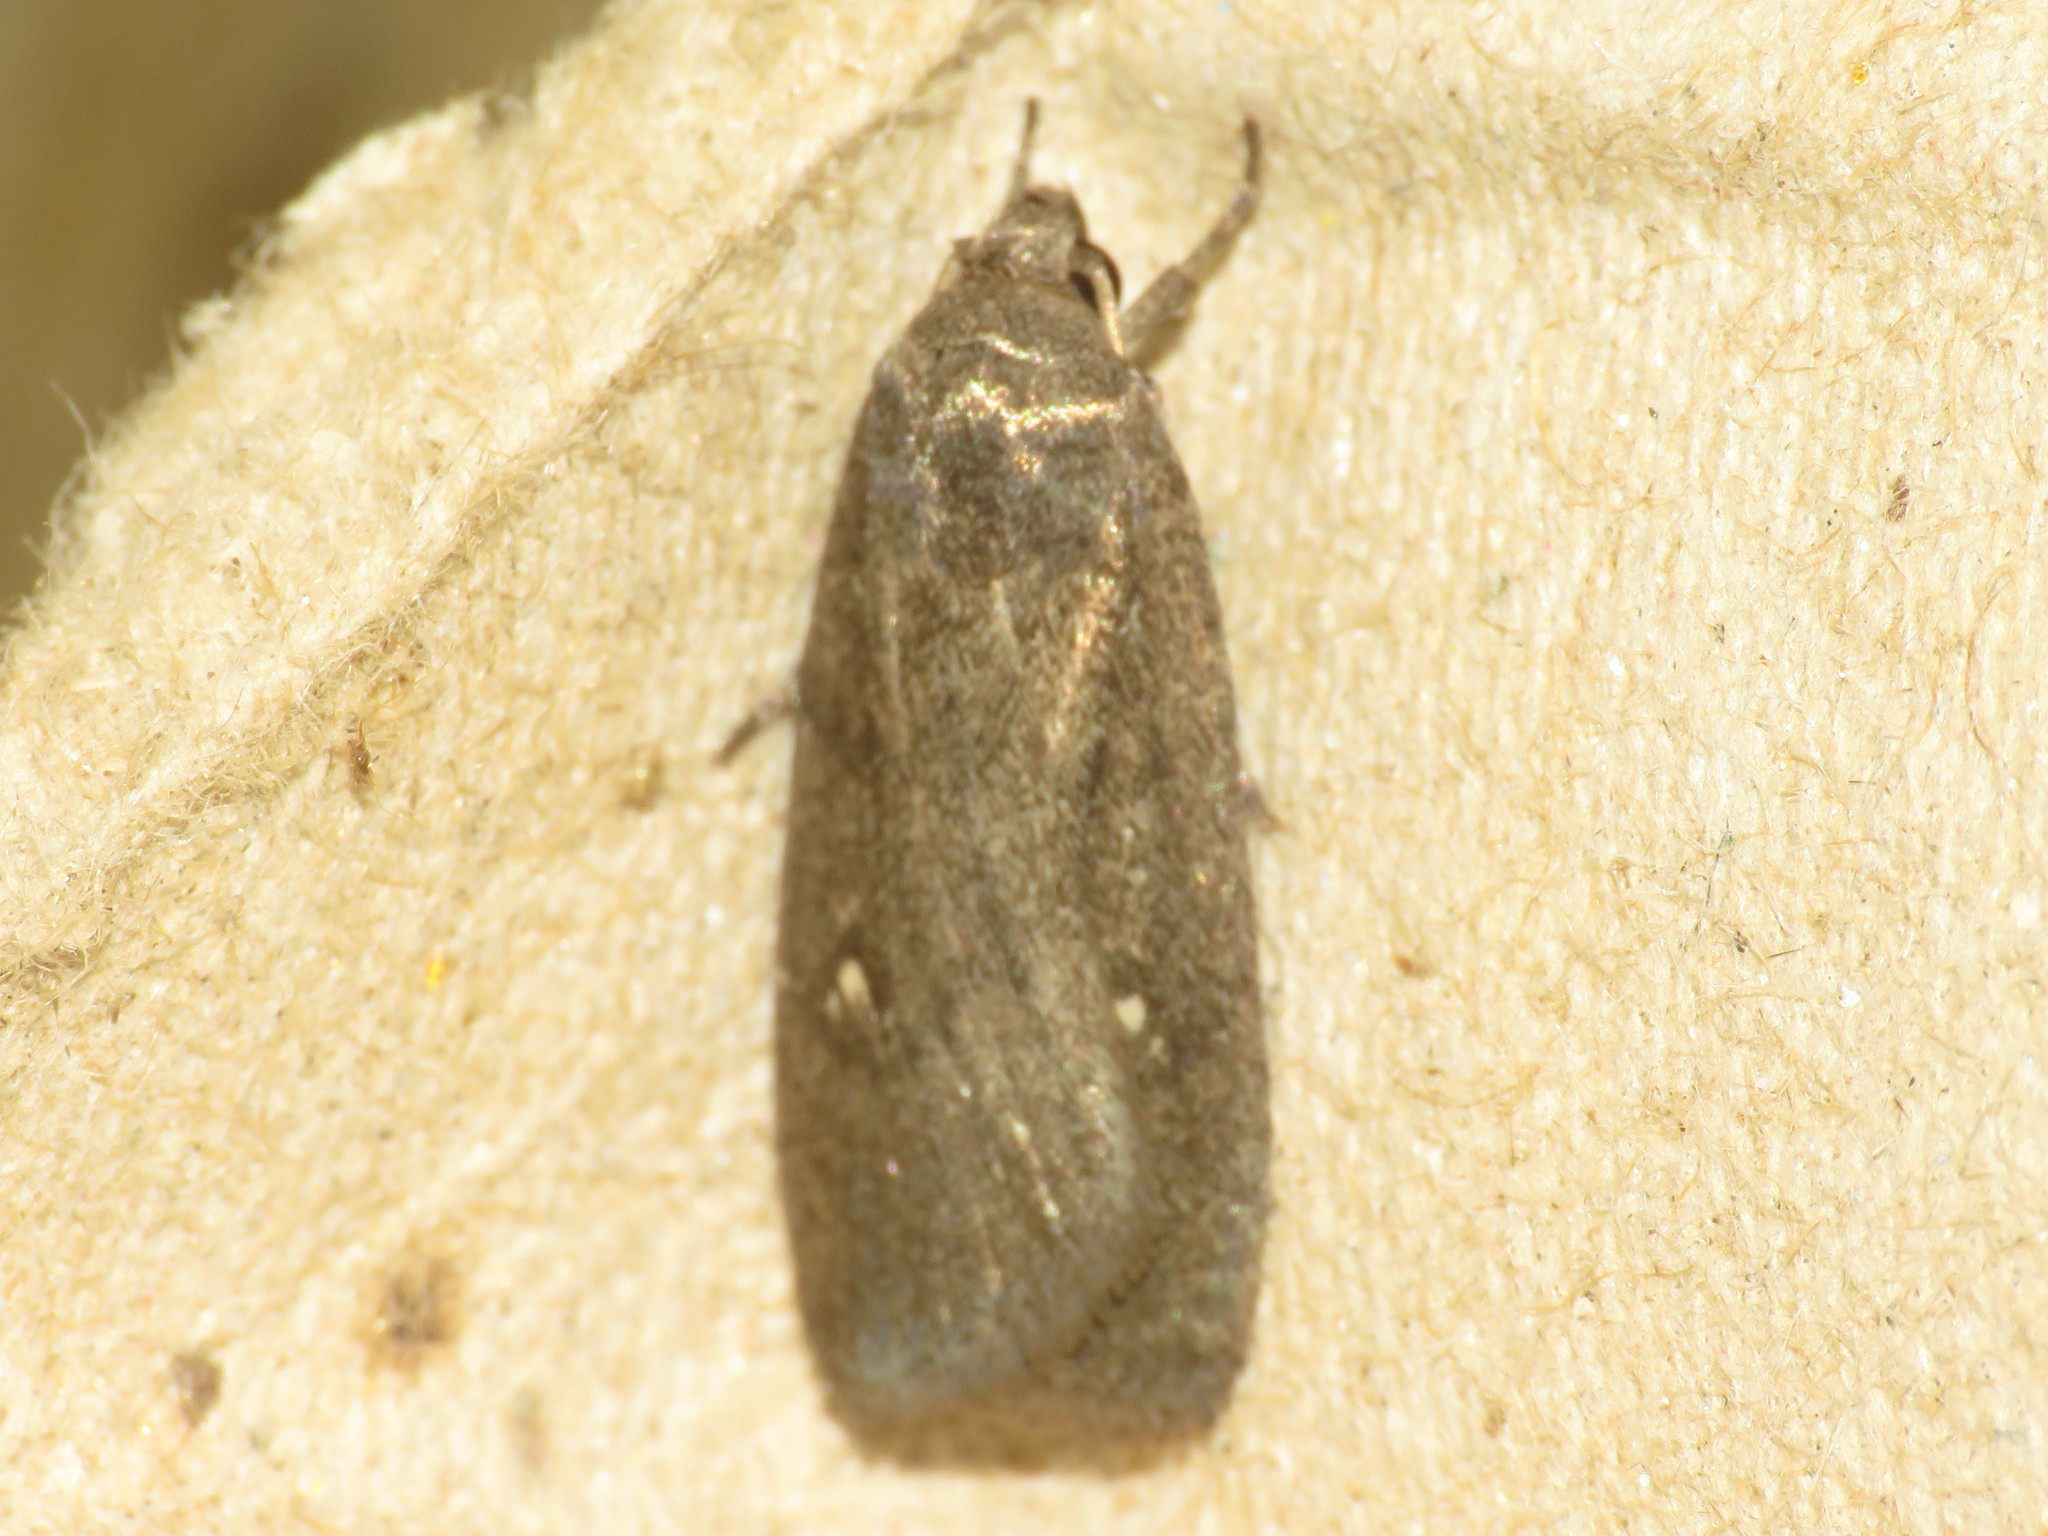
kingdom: Animalia
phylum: Arthropoda
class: Insecta
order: Lepidoptera
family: Noctuidae
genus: Proxenus
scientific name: Proxenus miranda
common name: Miranda moth
